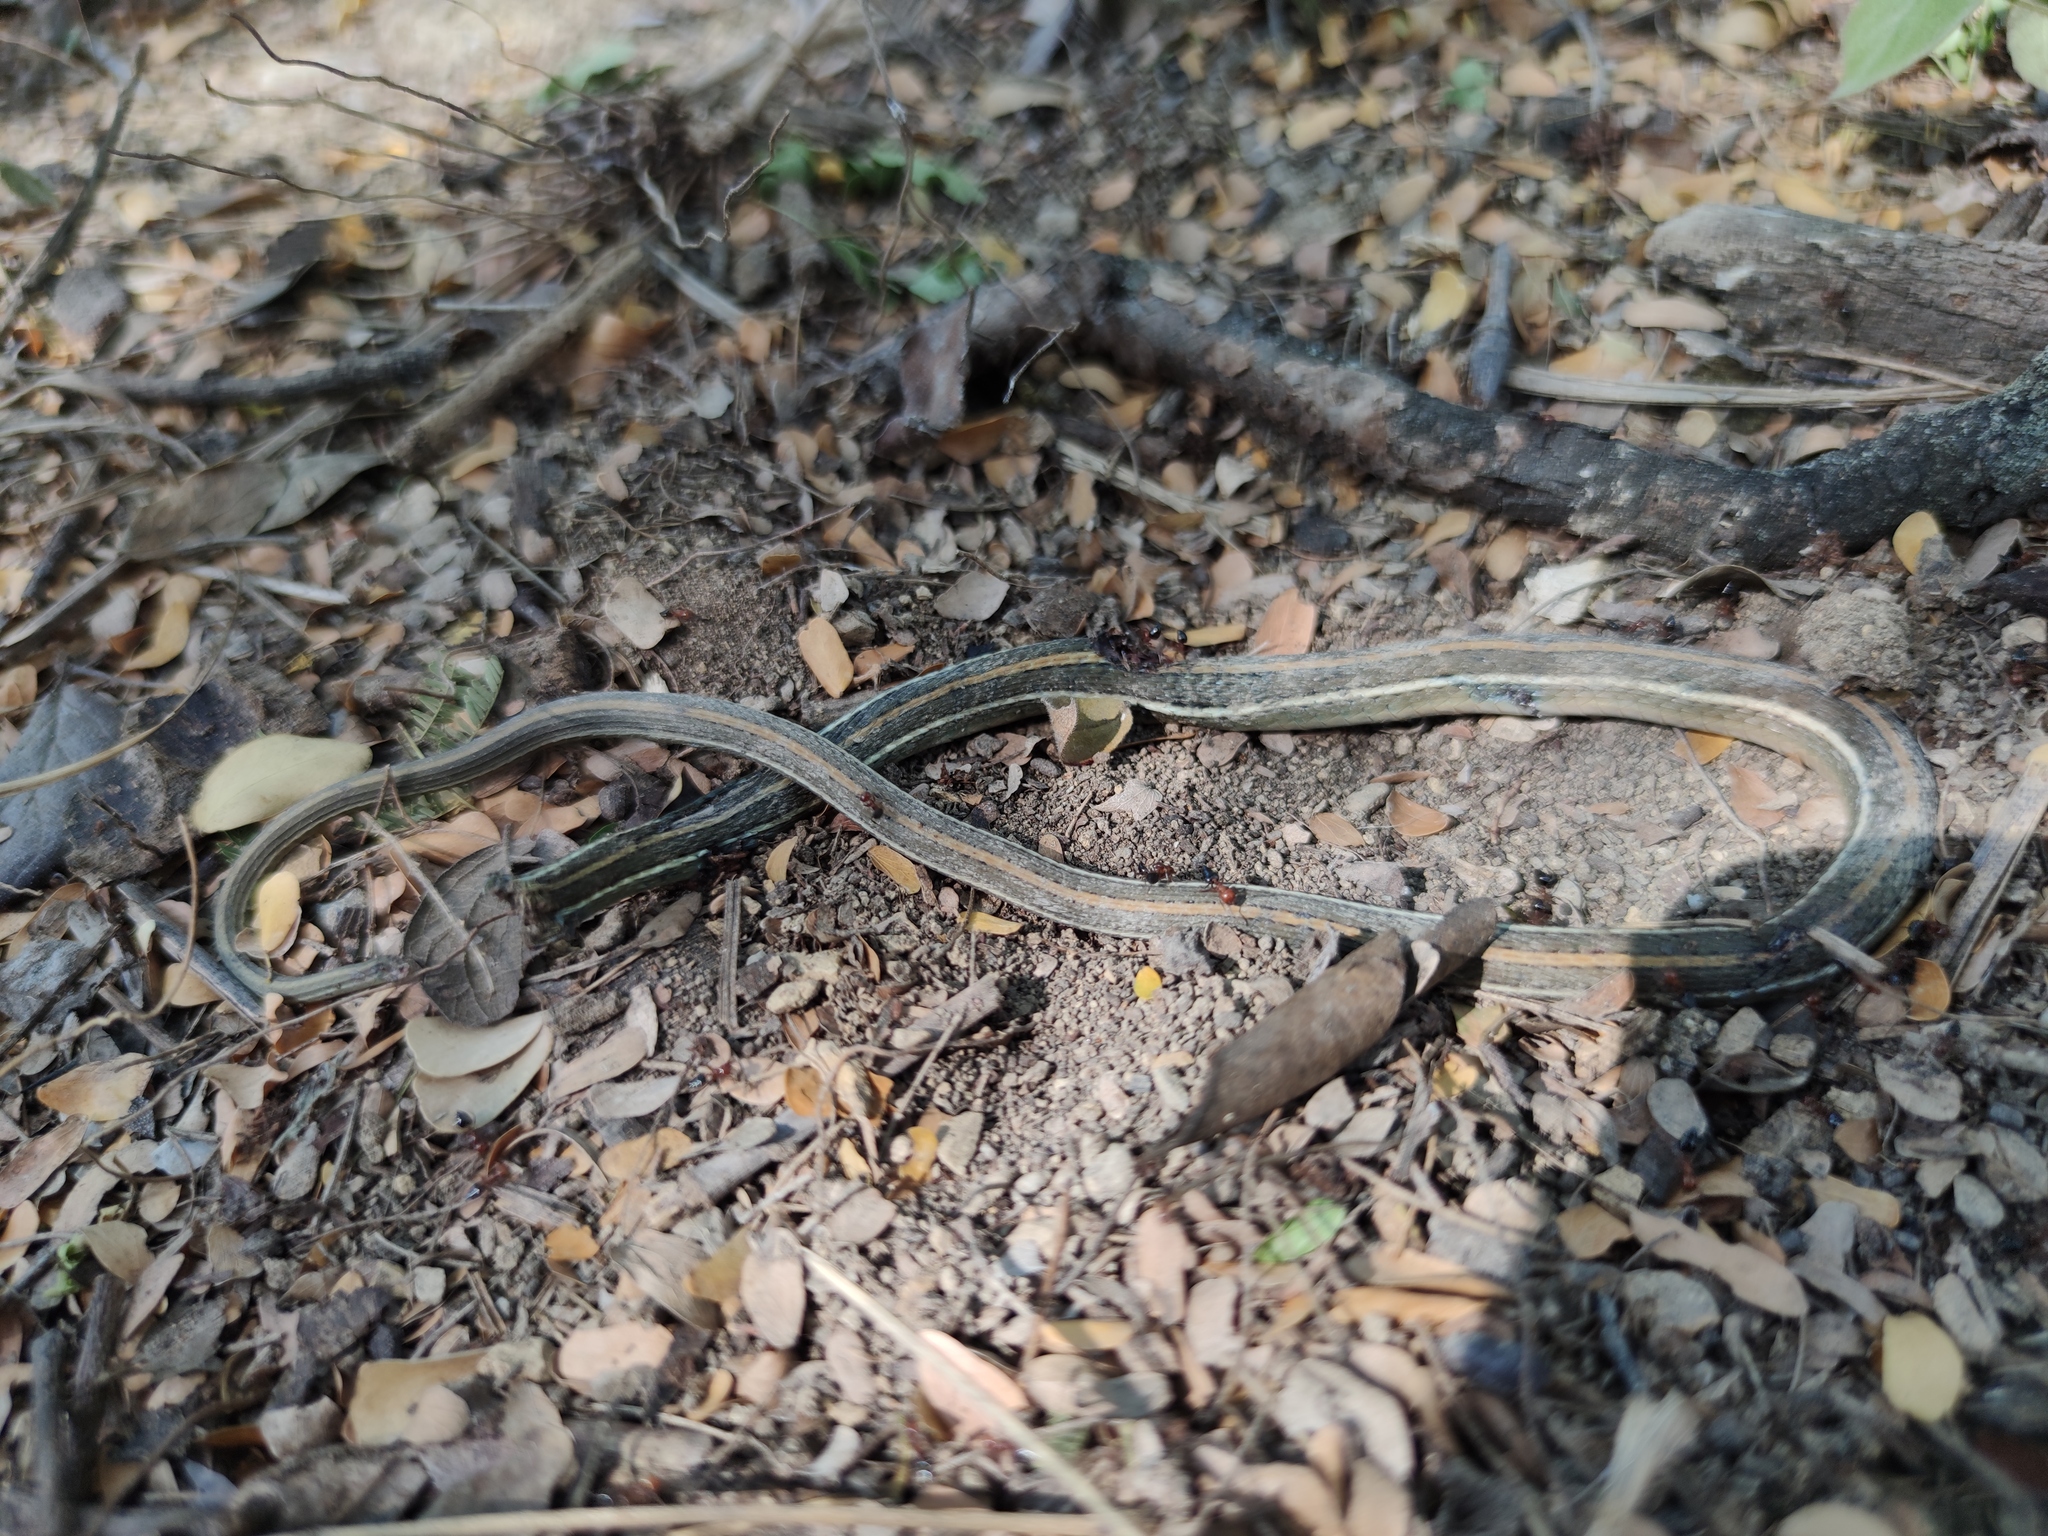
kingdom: Animalia
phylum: Chordata
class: Squamata
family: Colubridae
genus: Thamnophis
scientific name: Thamnophis proximus
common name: Western ribbon snake
